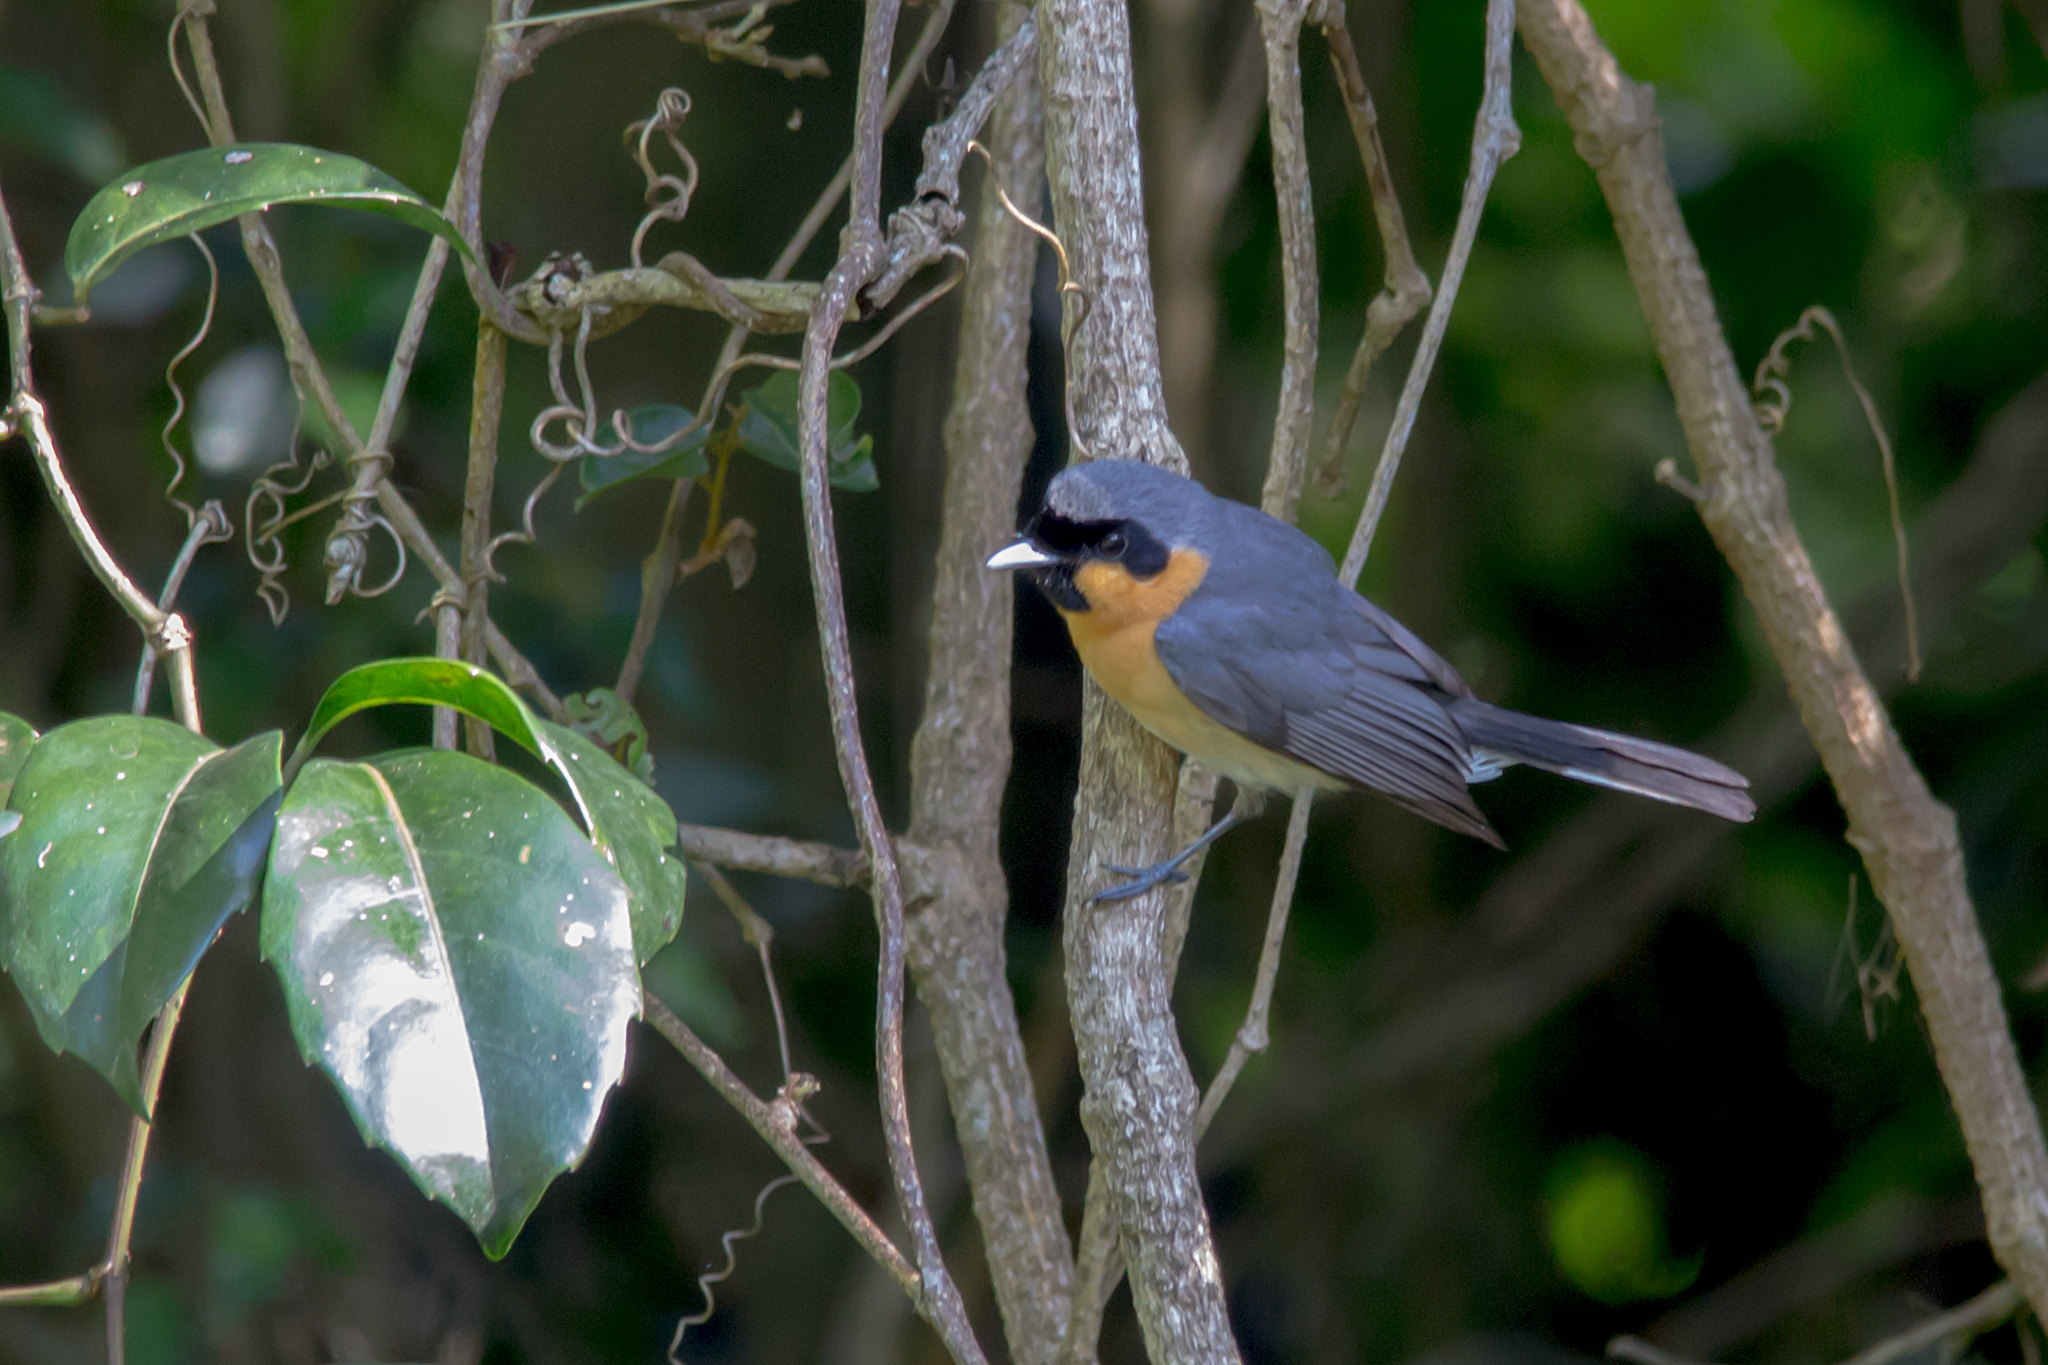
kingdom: Animalia
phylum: Chordata
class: Aves
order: Passeriformes
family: Monarchidae
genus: Symposiachrus
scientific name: Symposiachrus trivirgatus
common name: Spectacled monarch
